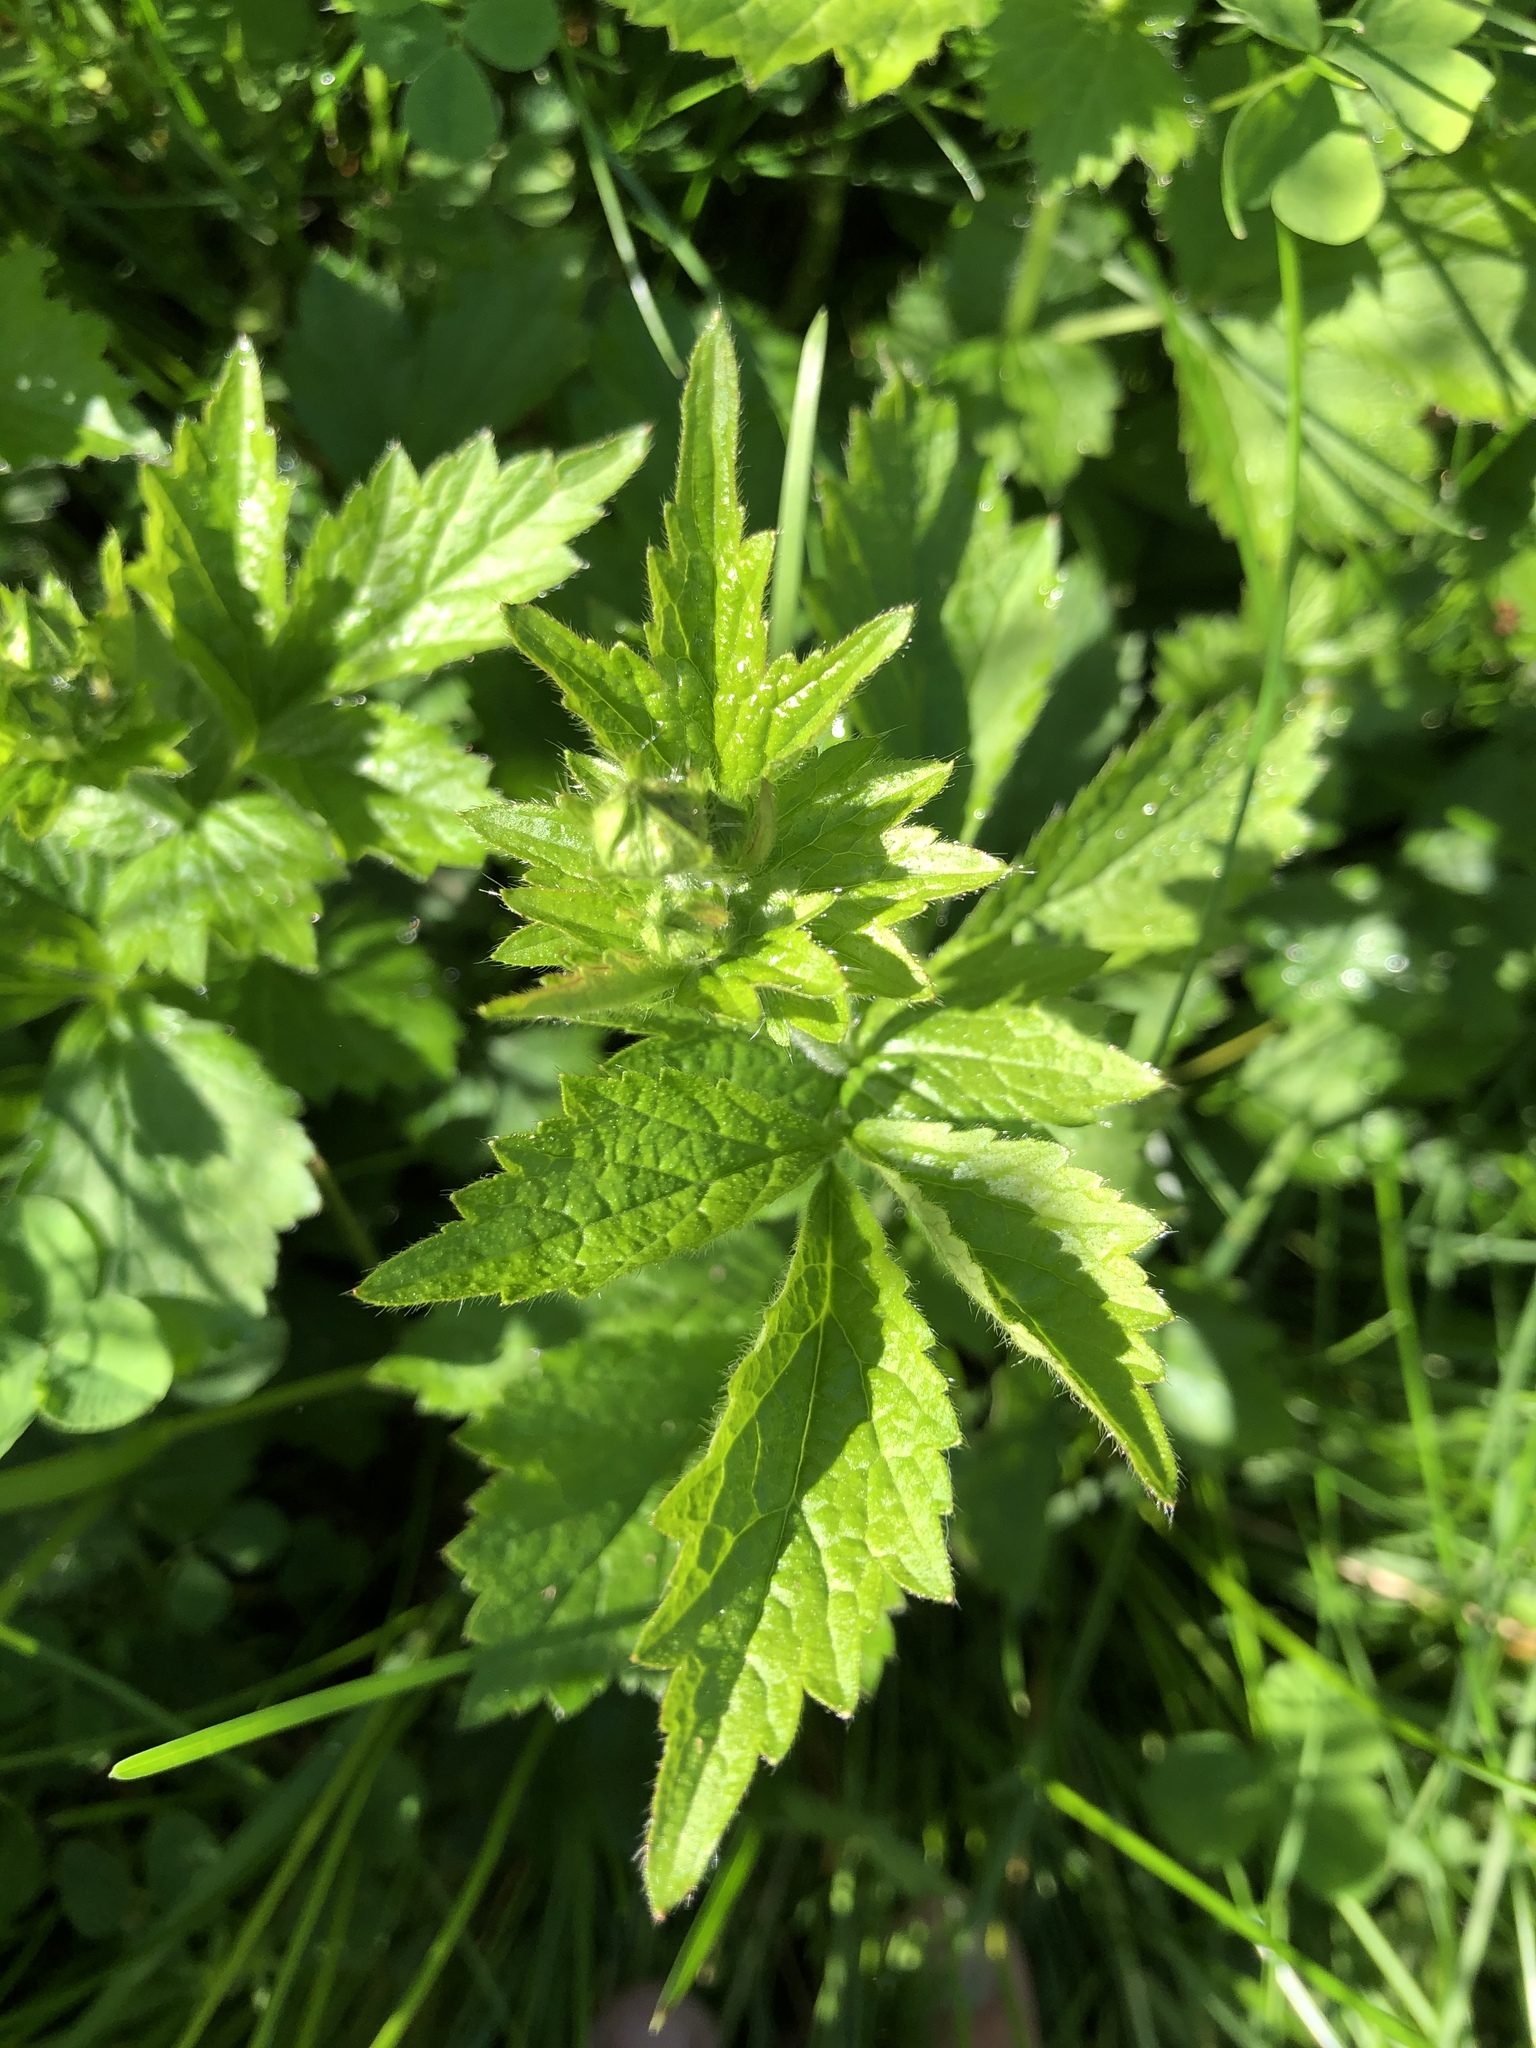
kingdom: Plantae
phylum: Tracheophyta
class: Magnoliopsida
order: Rosales
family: Rosaceae
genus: Geum
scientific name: Geum urbanum
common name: Wood avens
